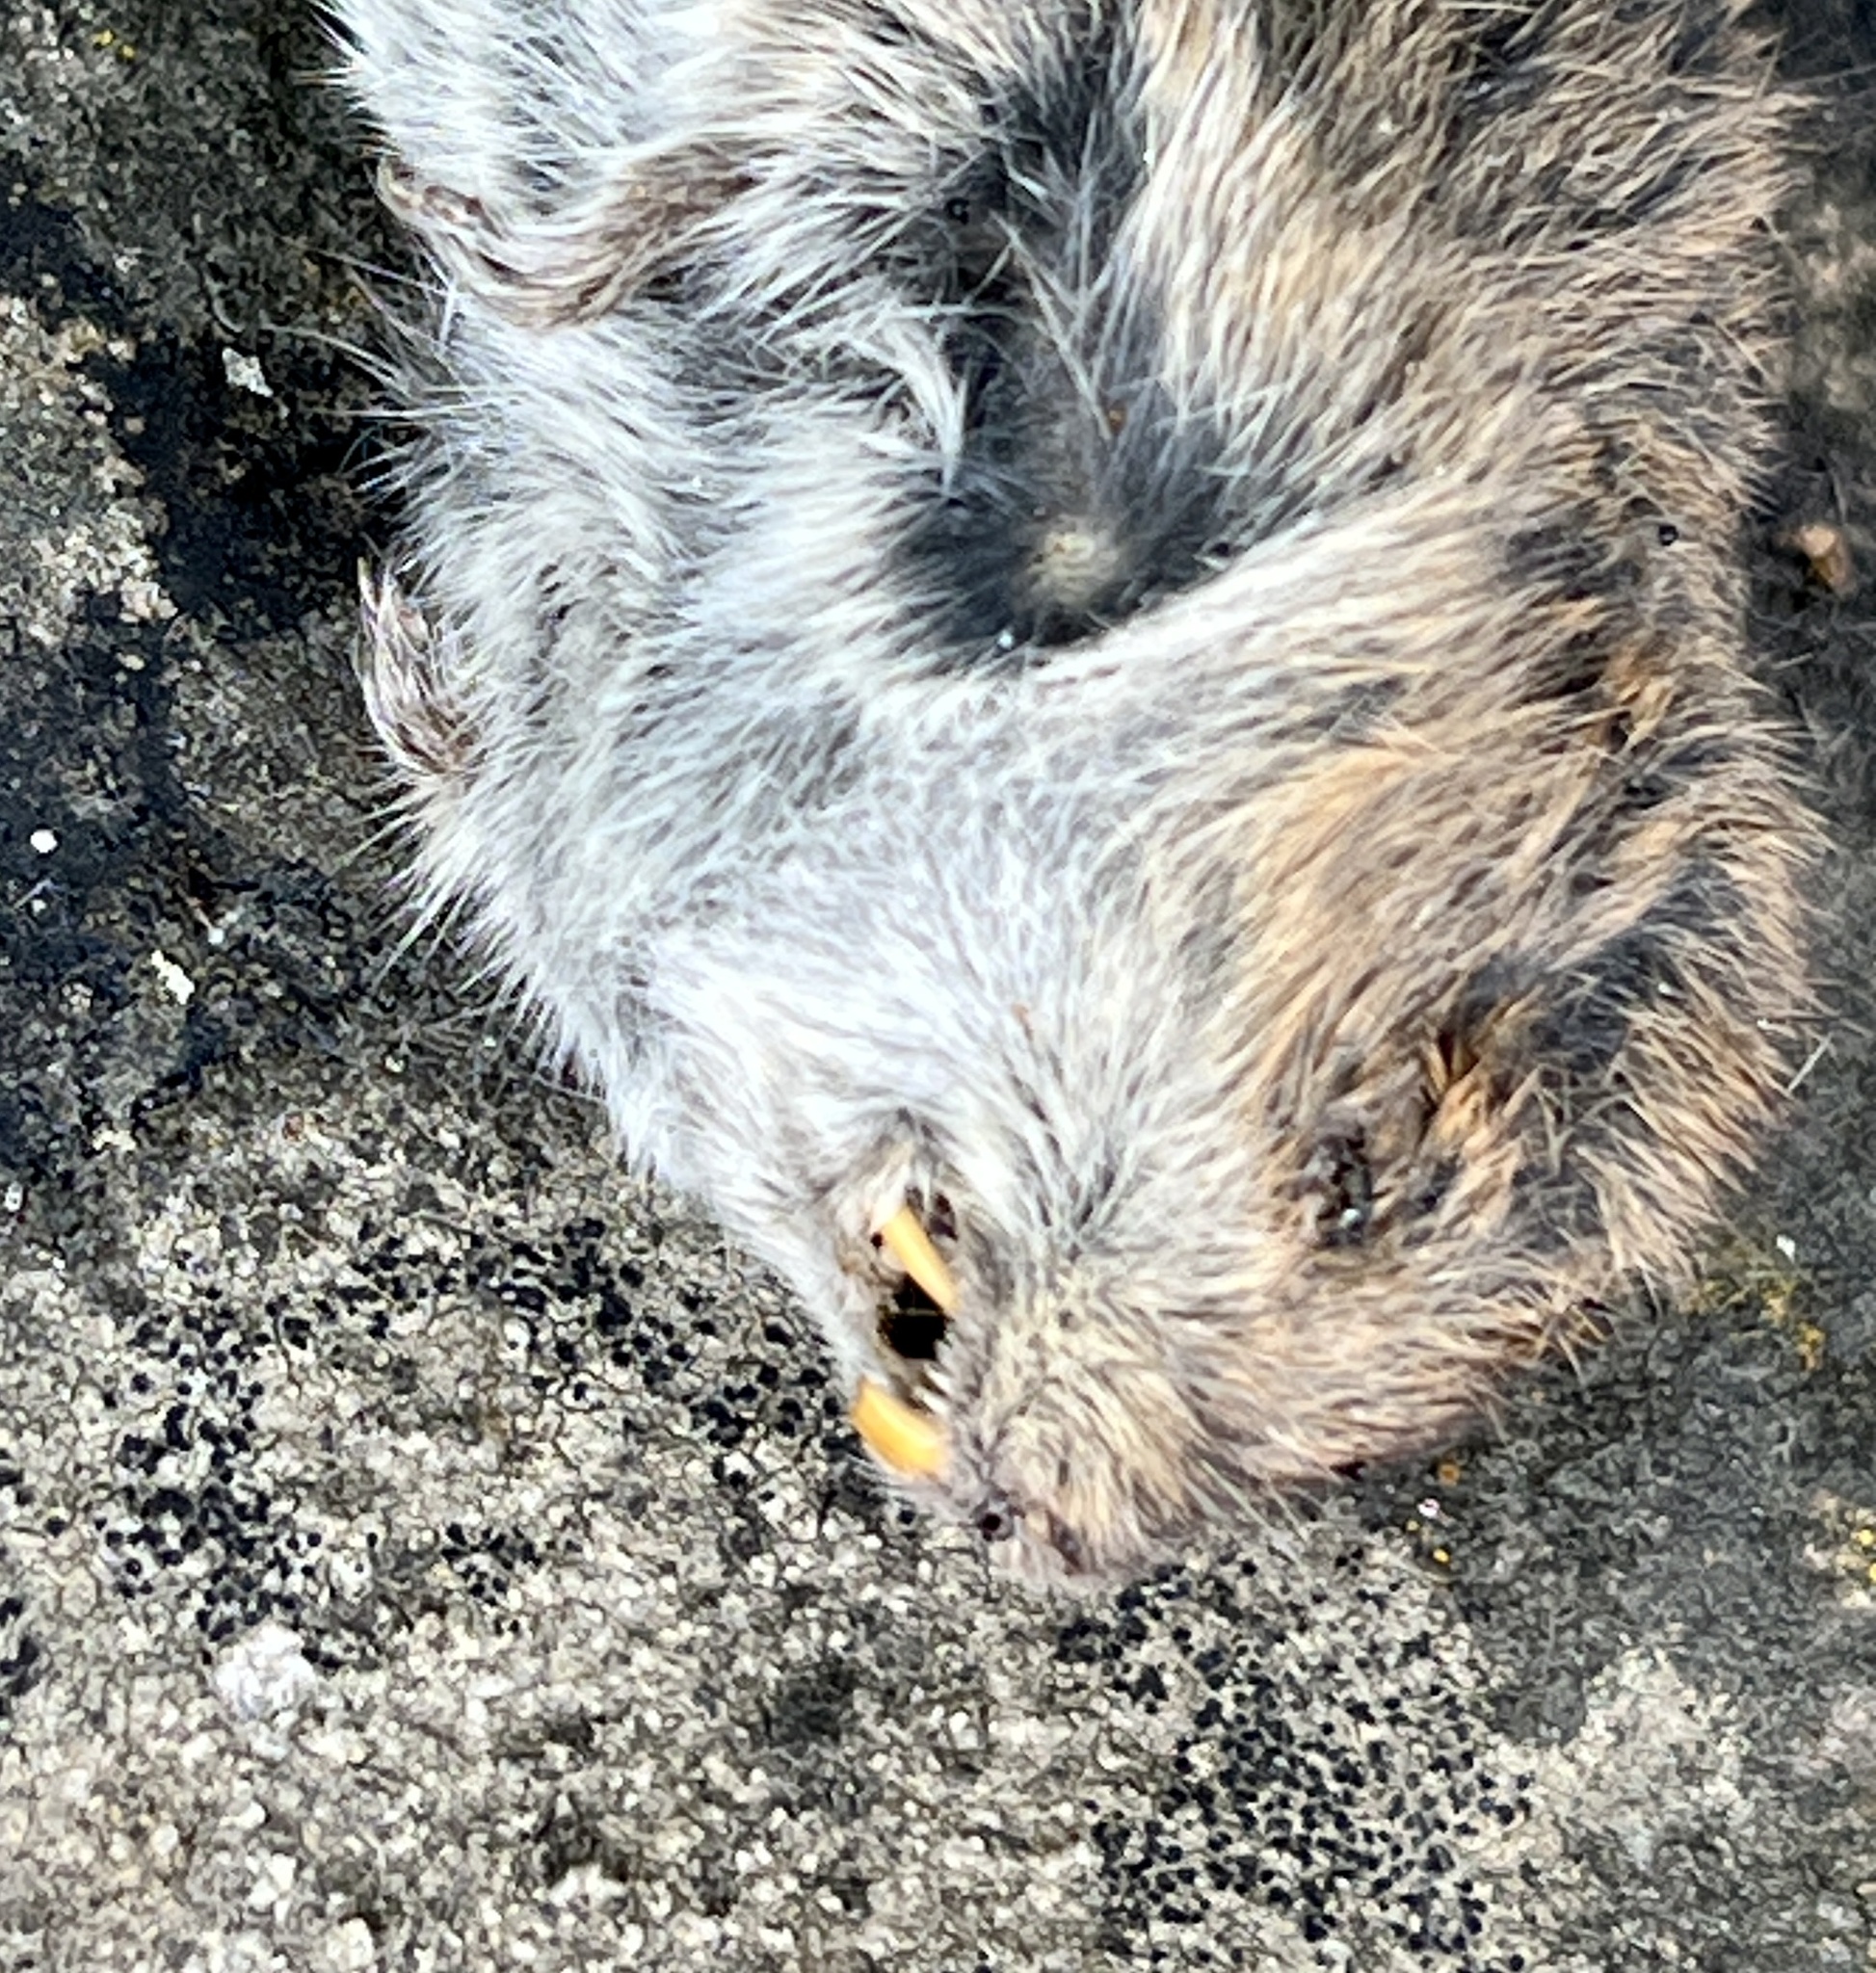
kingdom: Animalia
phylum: Chordata
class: Mammalia
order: Rodentia
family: Cricetidae
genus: Microtus
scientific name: Microtus arvalis
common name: Common vole
